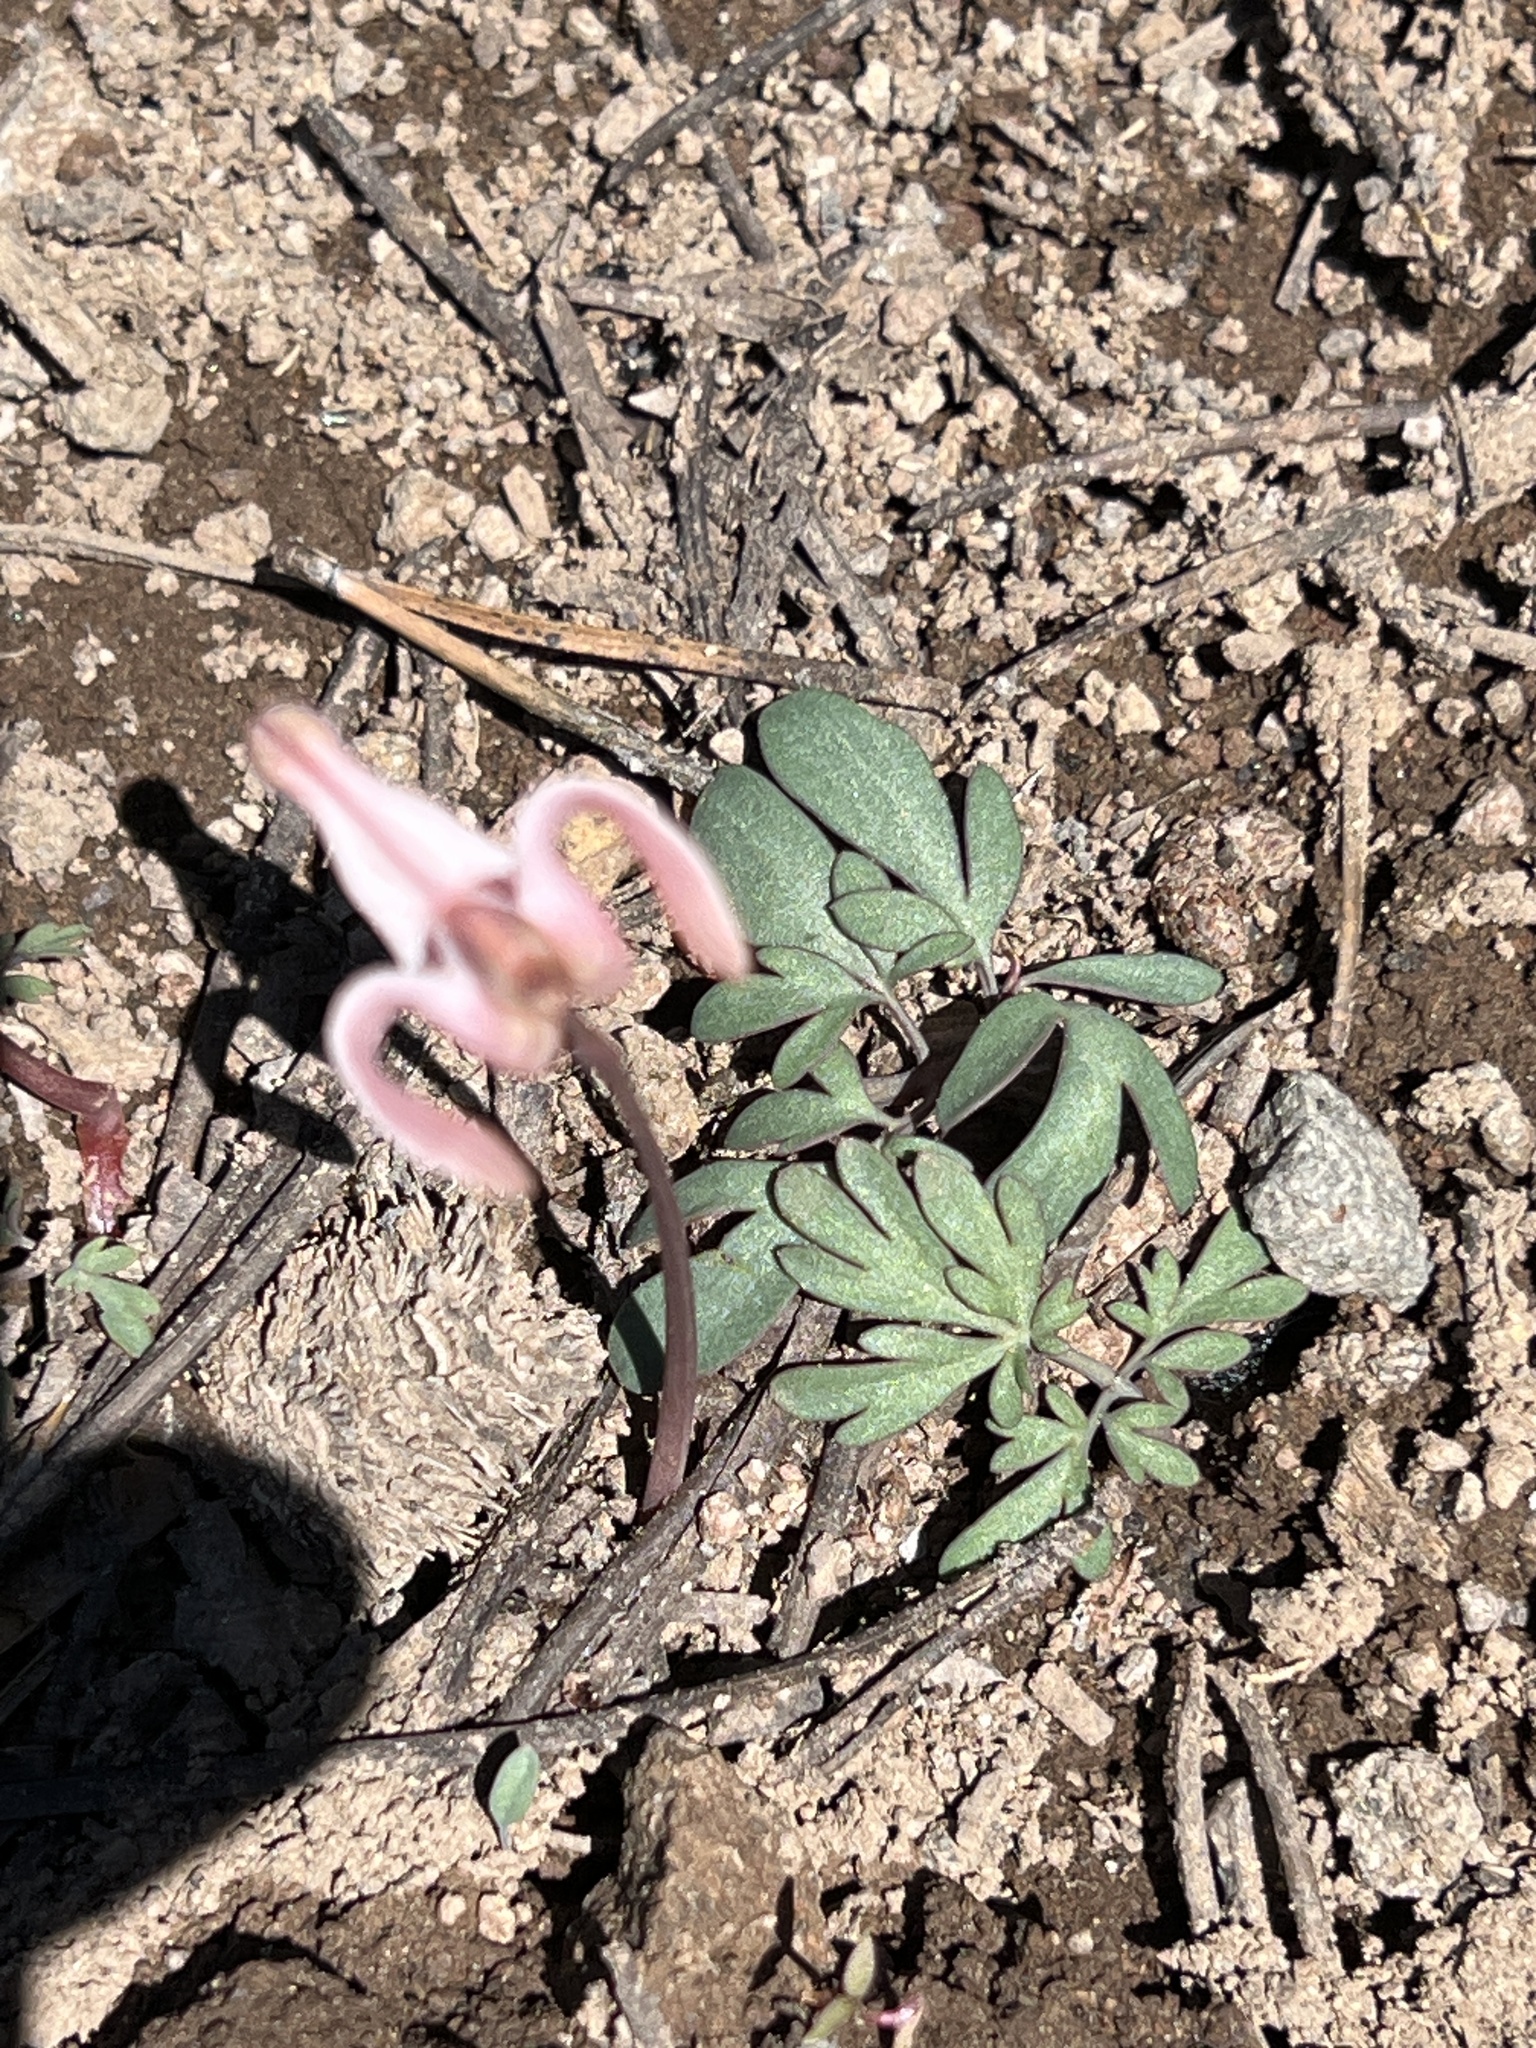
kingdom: Plantae
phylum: Tracheophyta
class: Magnoliopsida
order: Ranunculales
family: Papaveraceae
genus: Dicentra
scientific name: Dicentra uniflora
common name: Steer's-head
